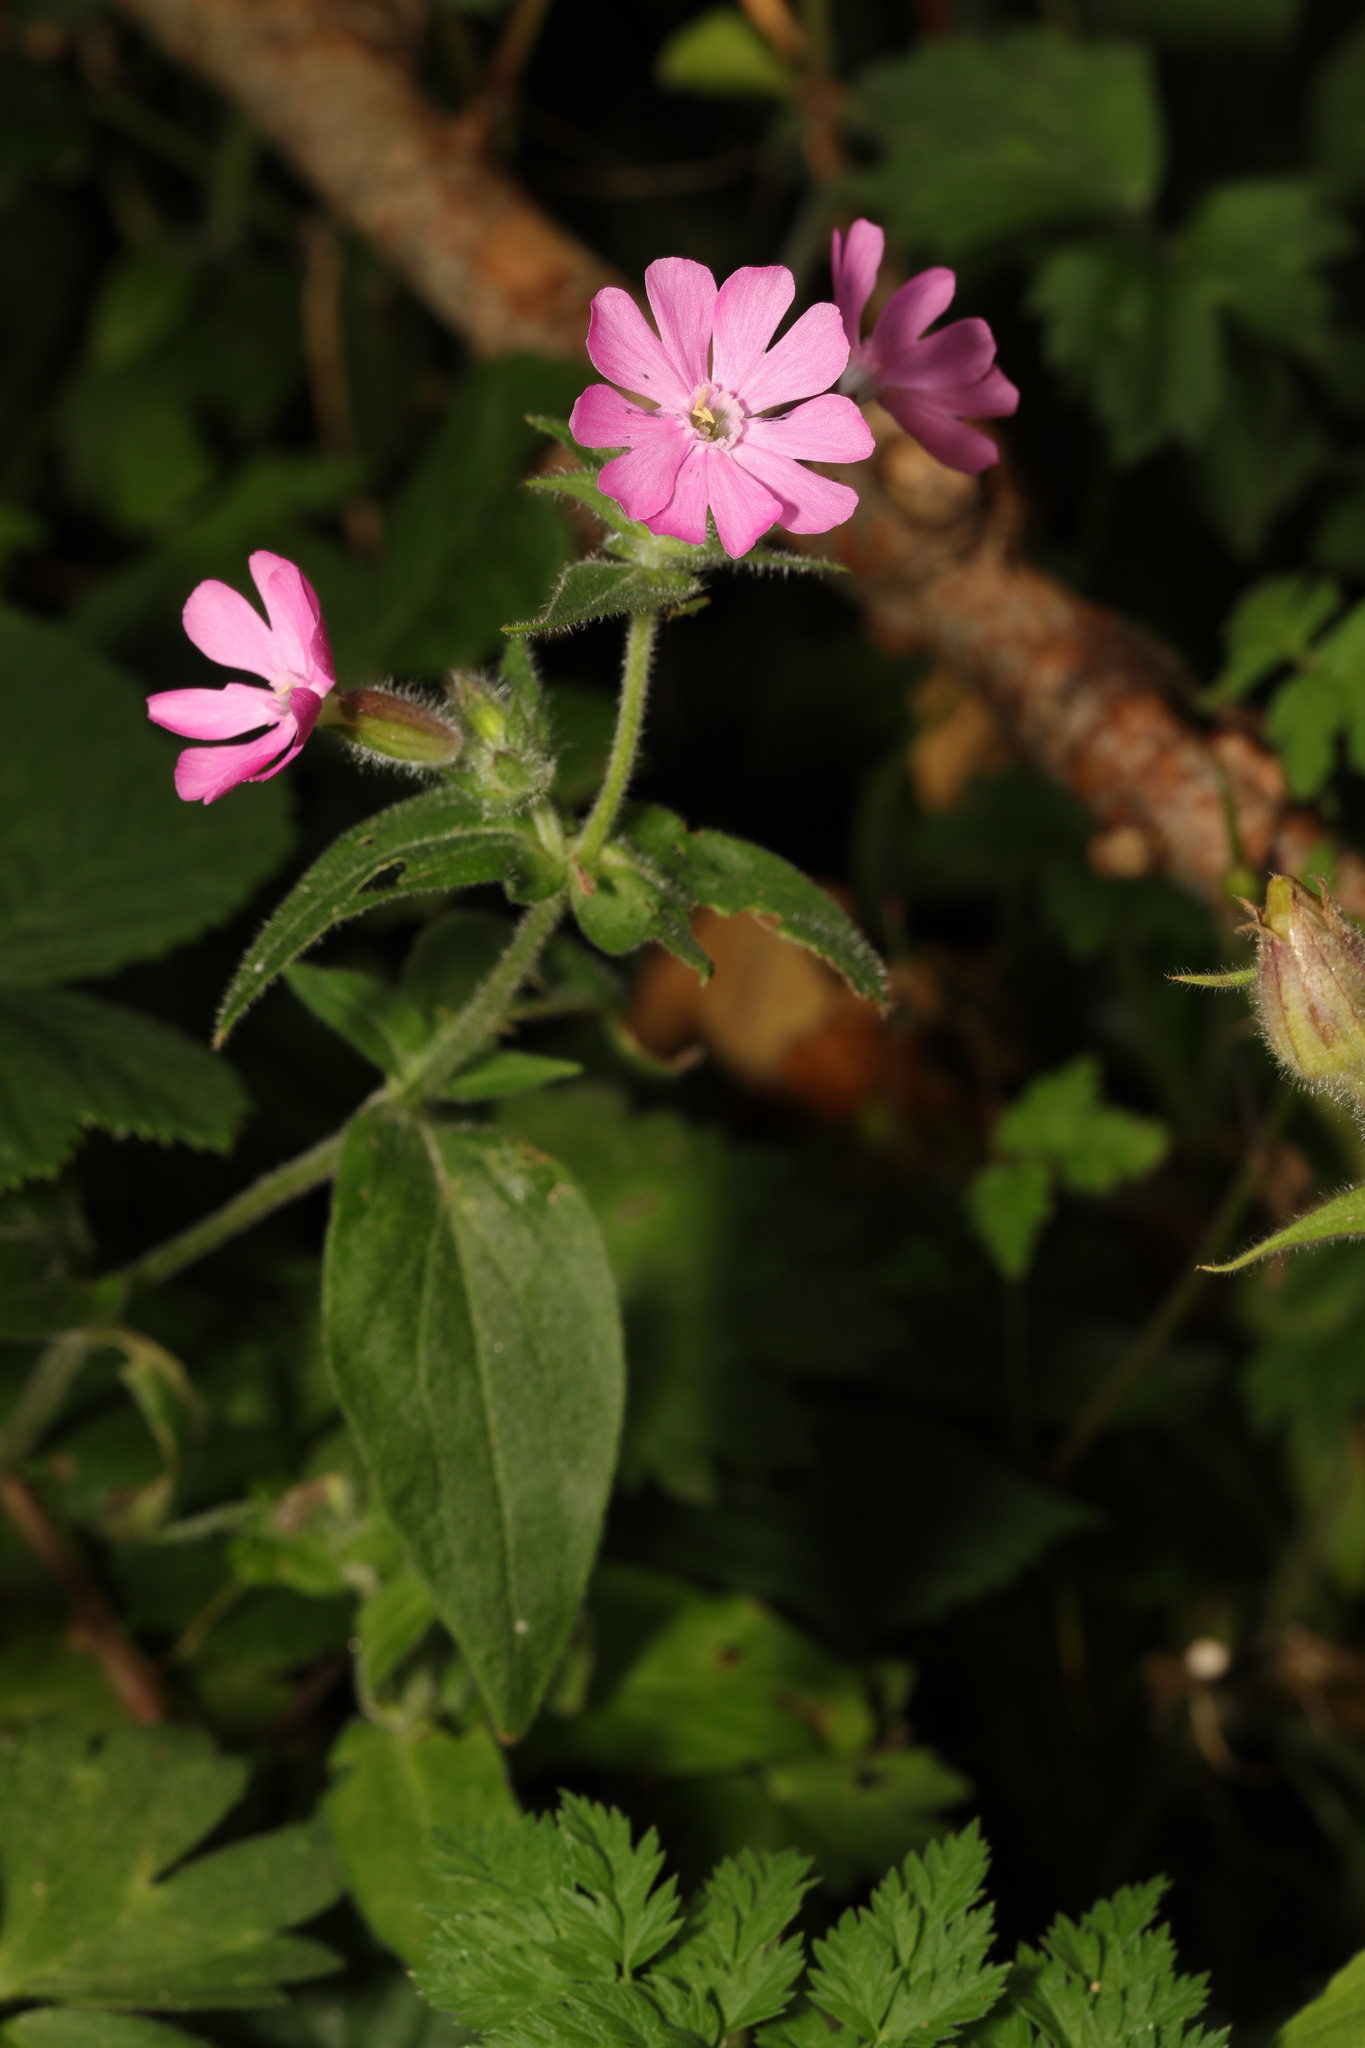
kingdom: Plantae
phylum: Tracheophyta
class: Magnoliopsida
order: Caryophyllales
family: Caryophyllaceae
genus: Silene
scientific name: Silene dioica
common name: Red campion
